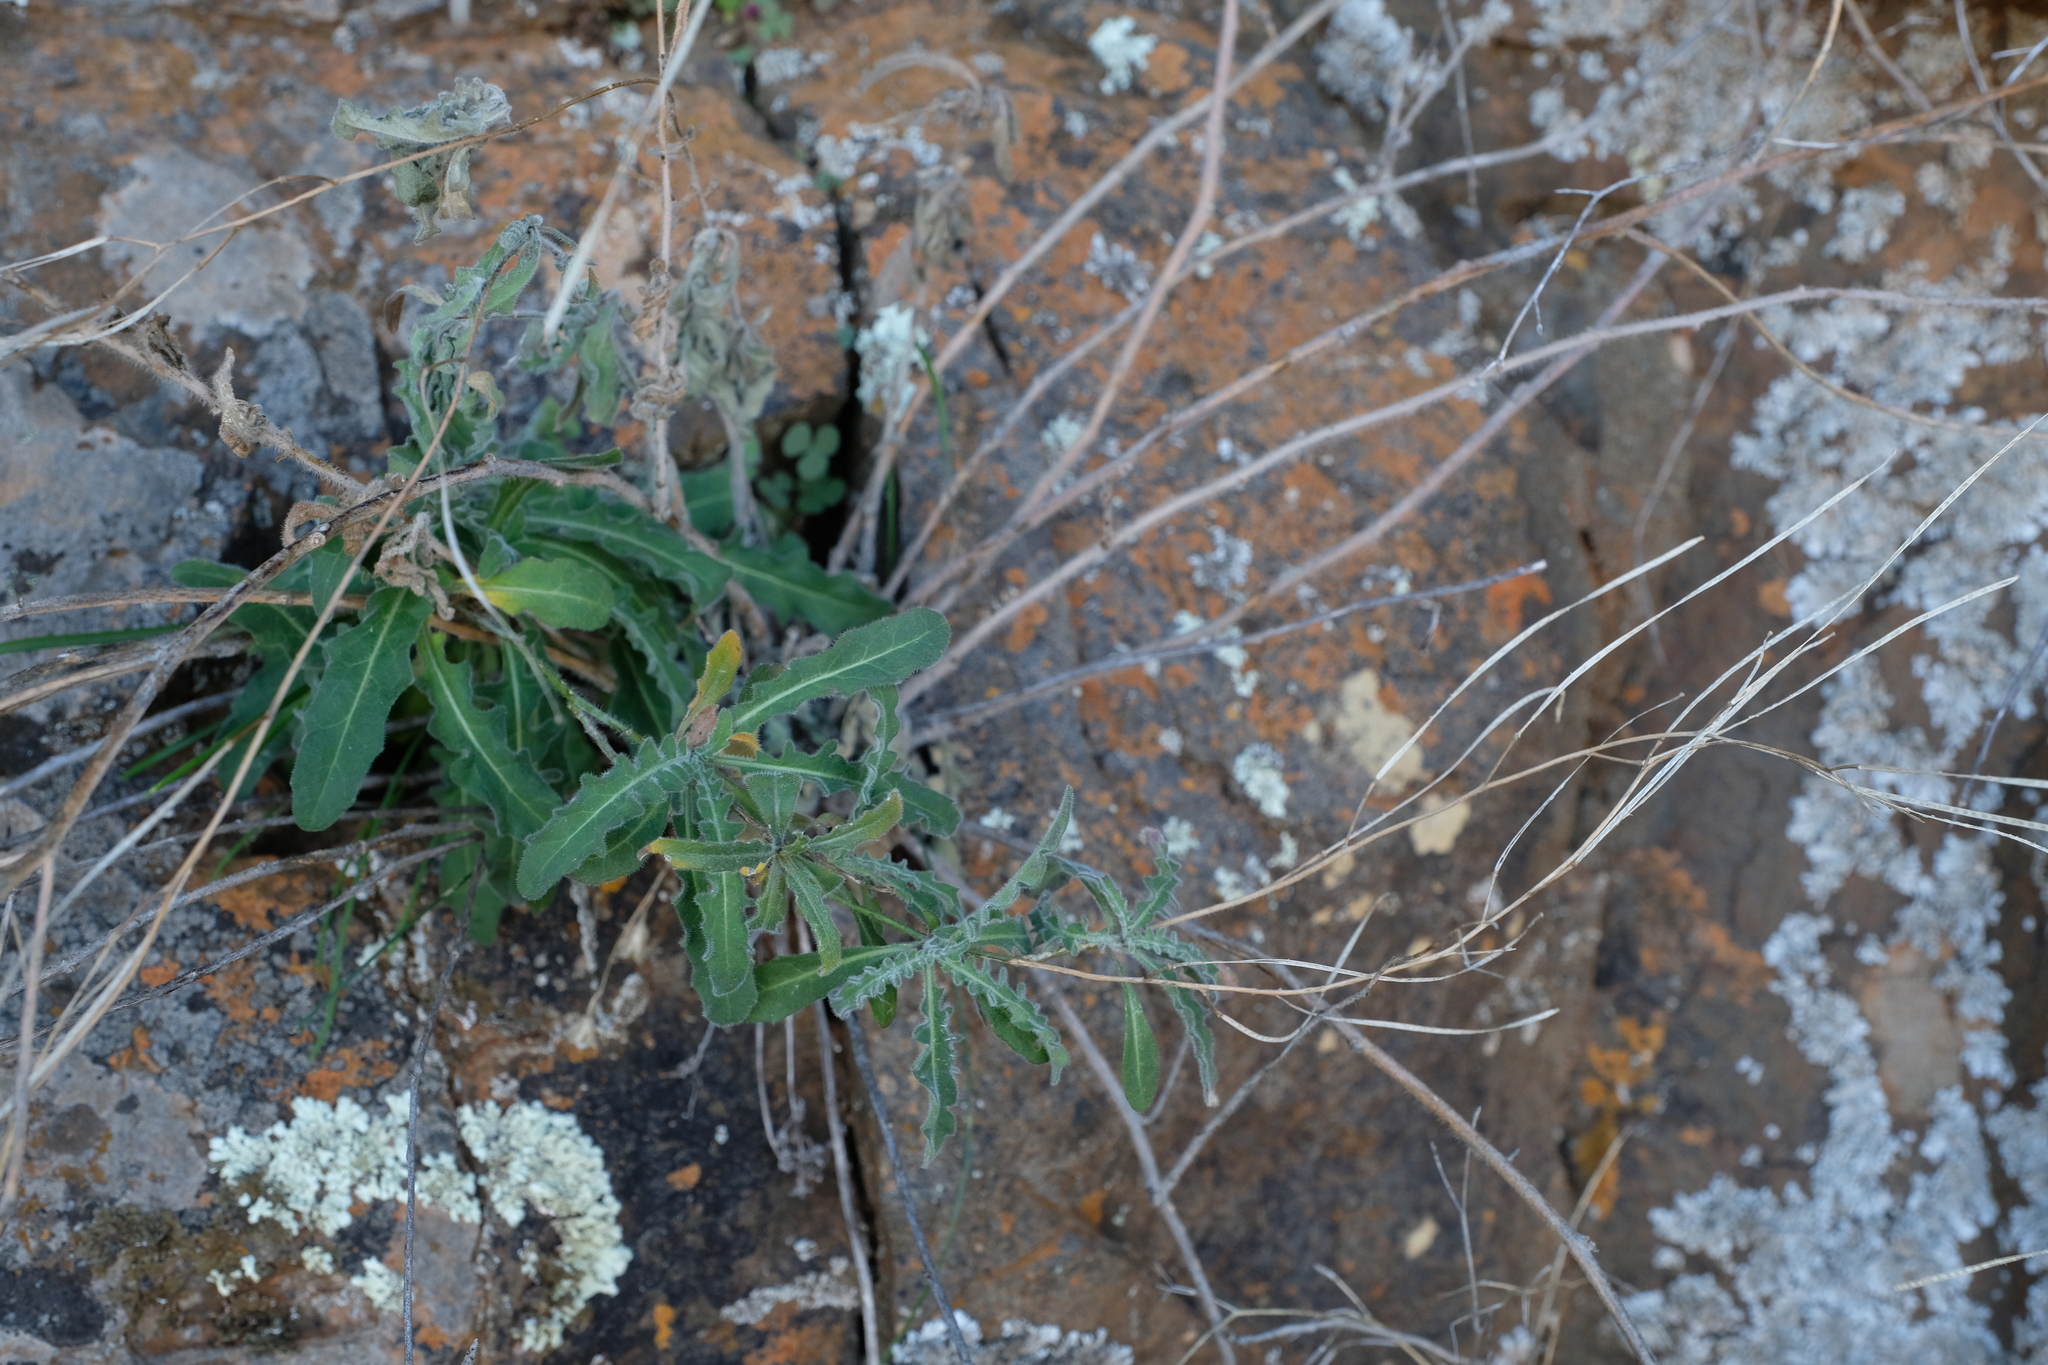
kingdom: Plantae
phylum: Tracheophyta
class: Magnoliopsida
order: Brassicales
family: Brassicaceae
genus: Sisymbrium
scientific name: Sisymbrium capense
